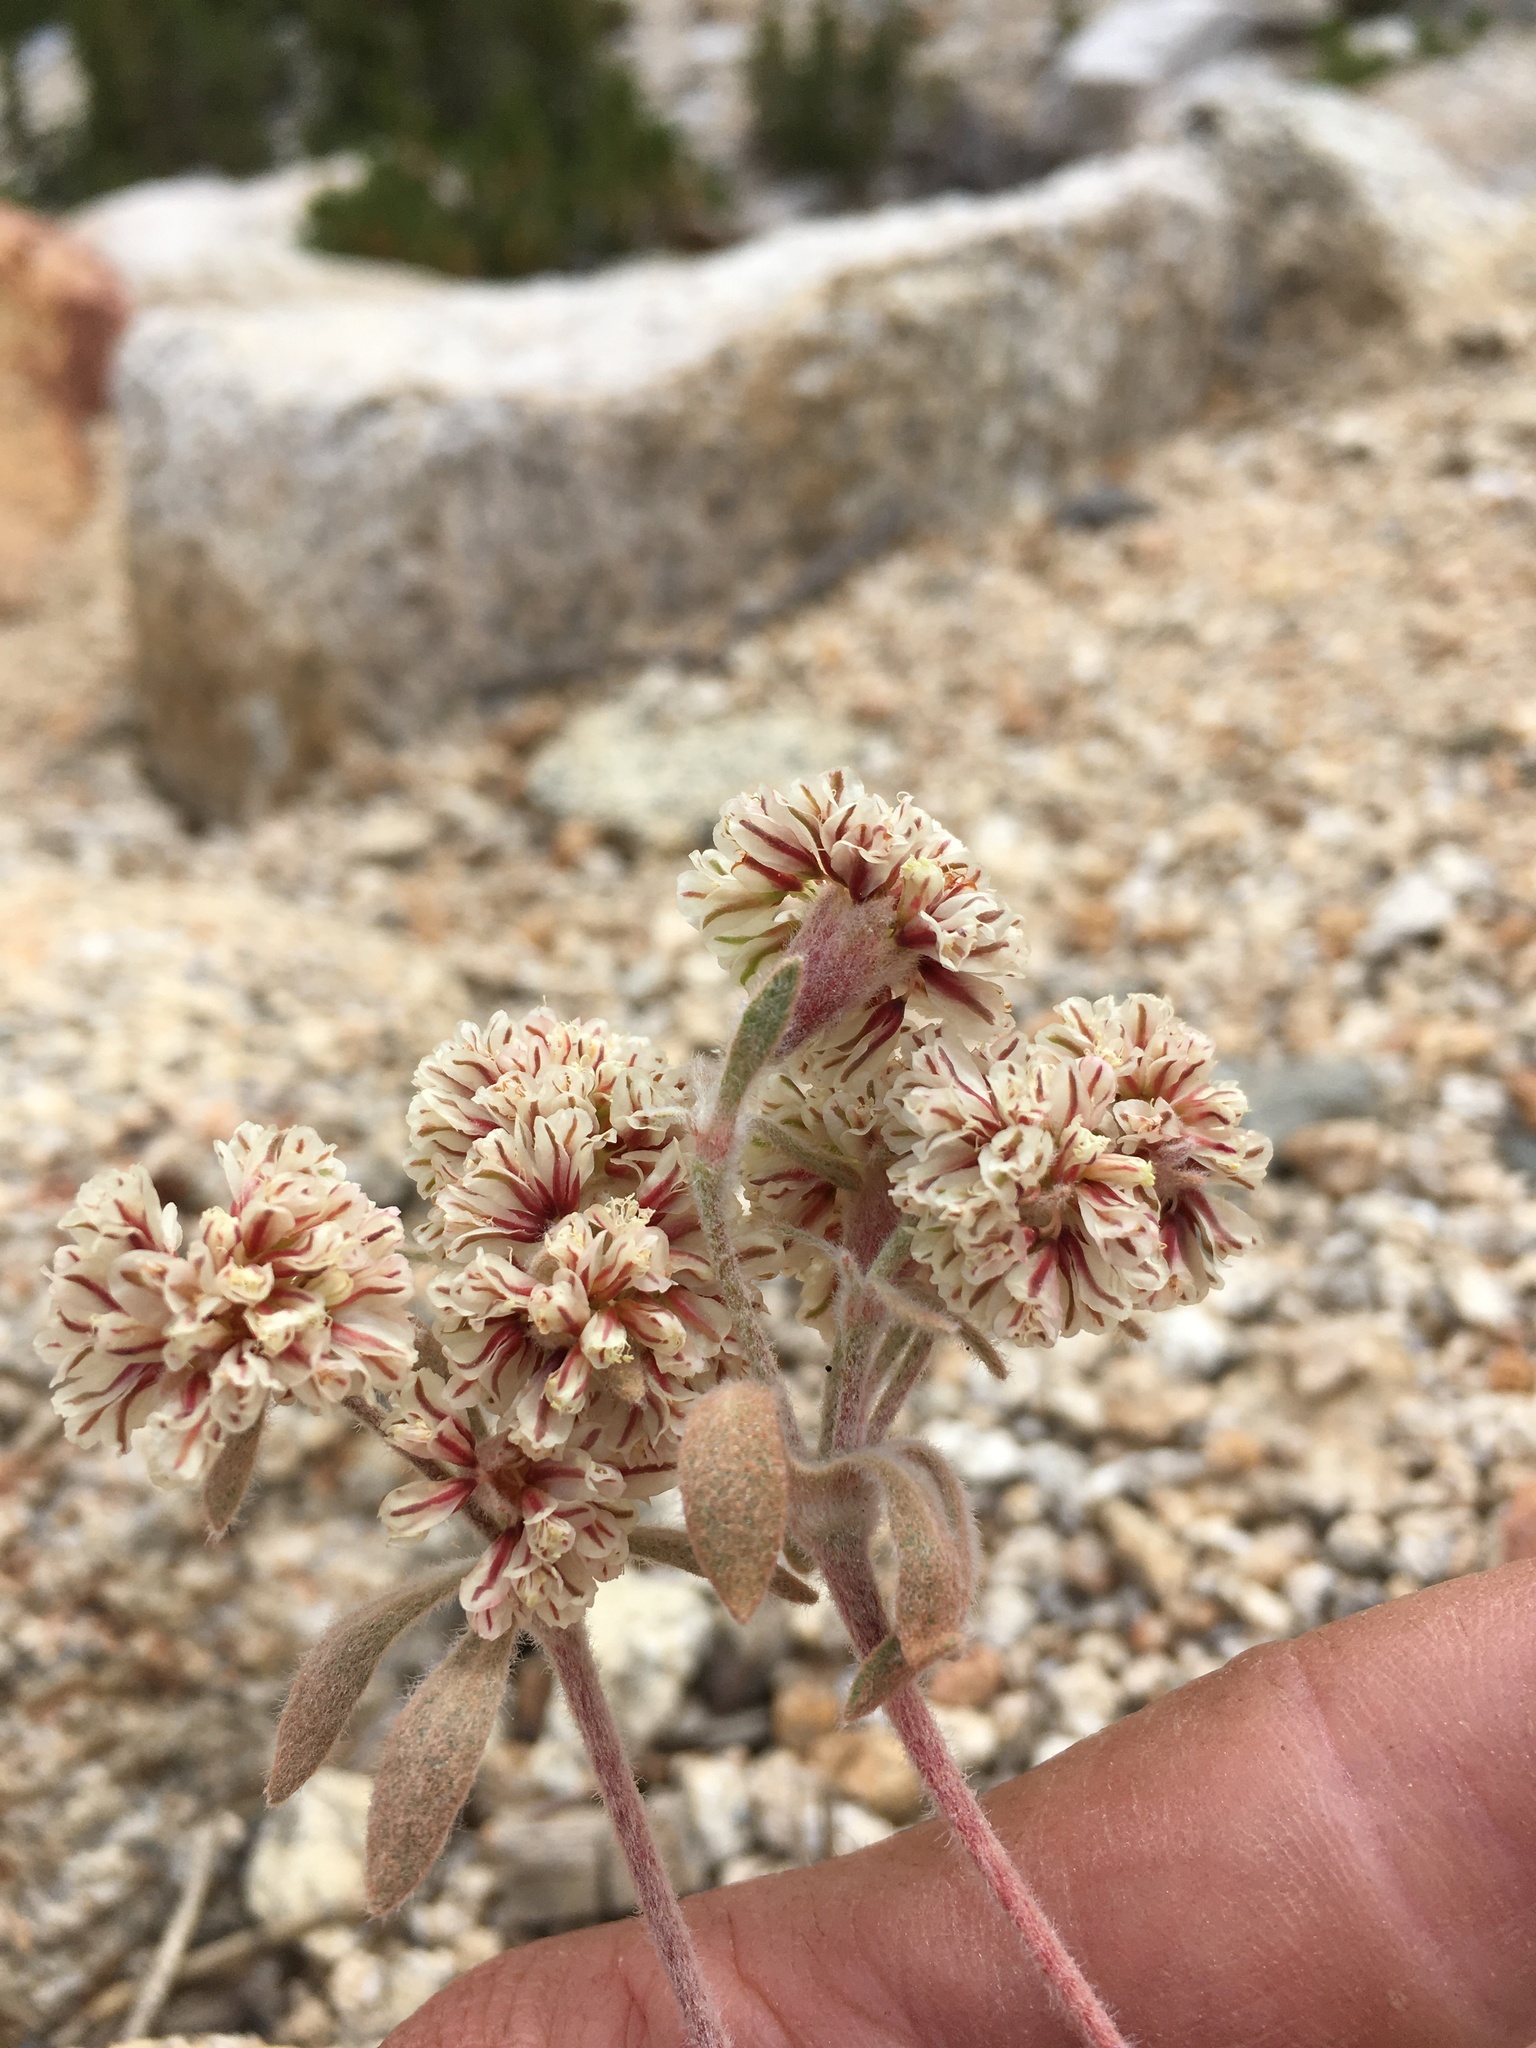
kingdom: Plantae
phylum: Tracheophyta
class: Magnoliopsida
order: Caryophyllales
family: Polygonaceae
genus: Eriogonum
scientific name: Eriogonum lobbii
